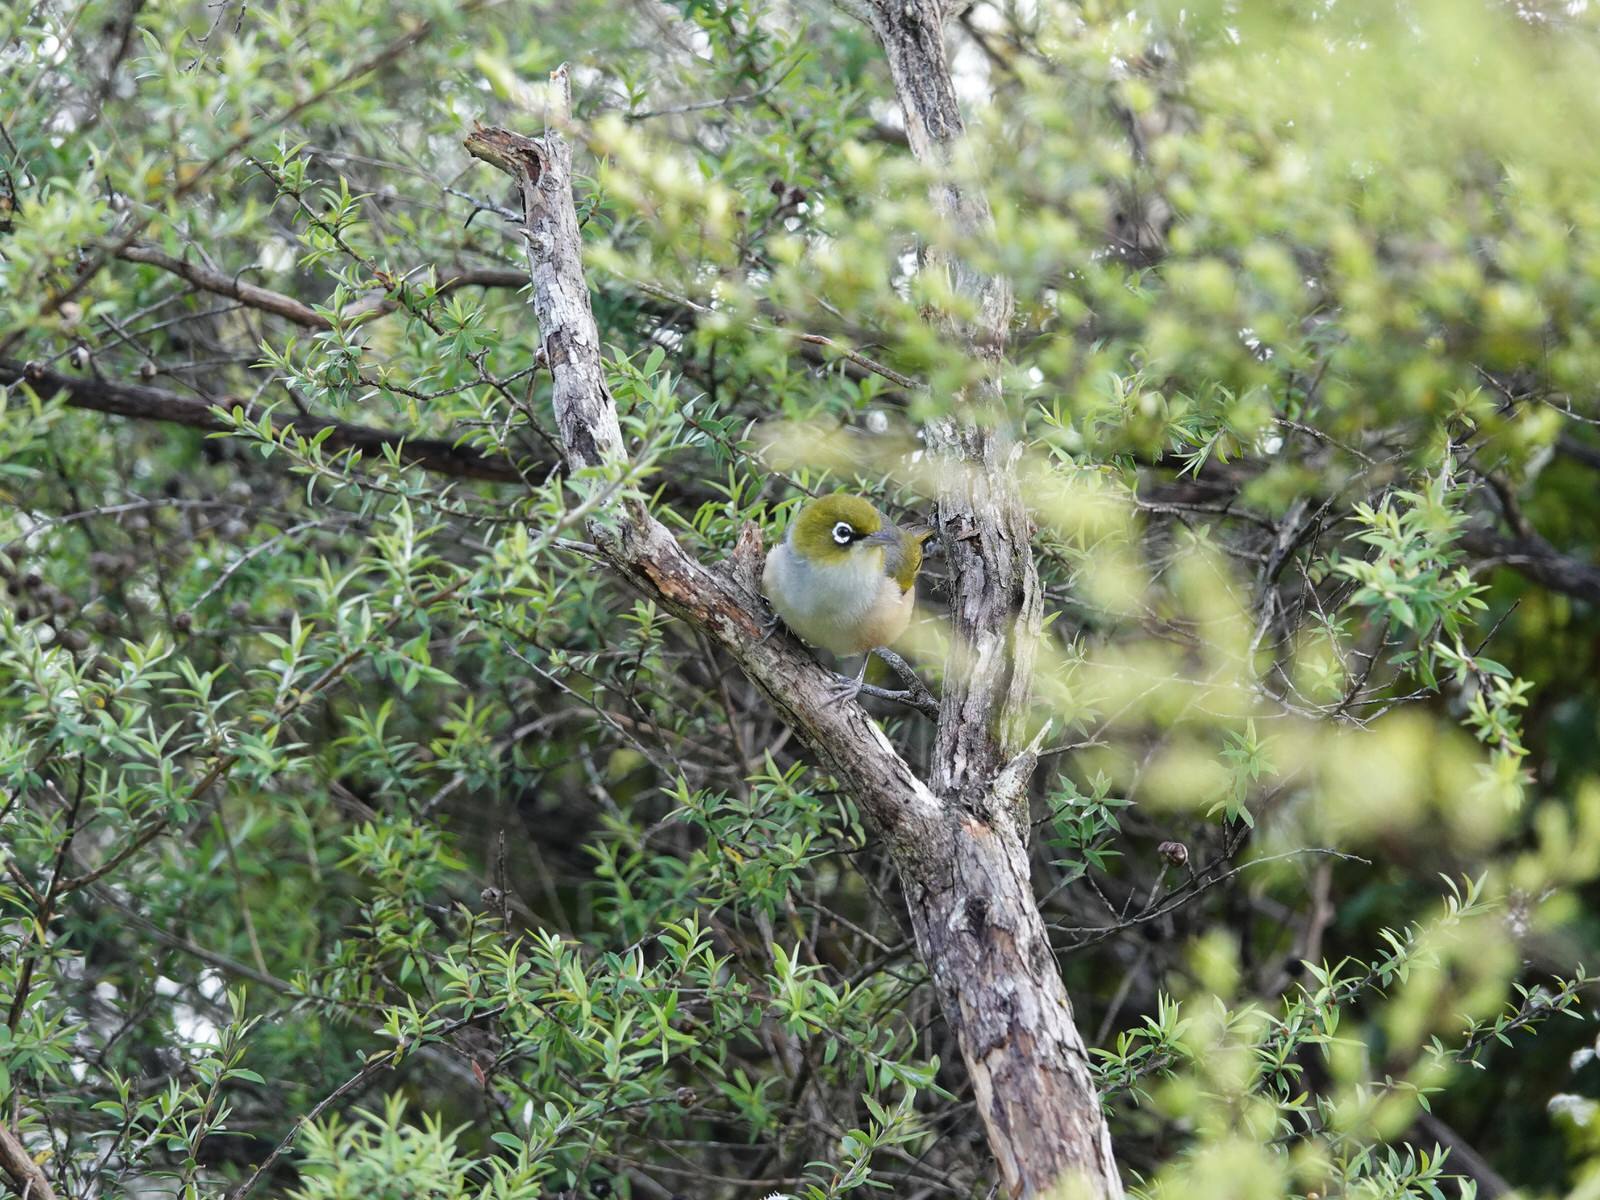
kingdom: Animalia
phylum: Chordata
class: Aves
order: Passeriformes
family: Zosteropidae
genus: Zosterops
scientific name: Zosterops lateralis
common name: Silvereye
